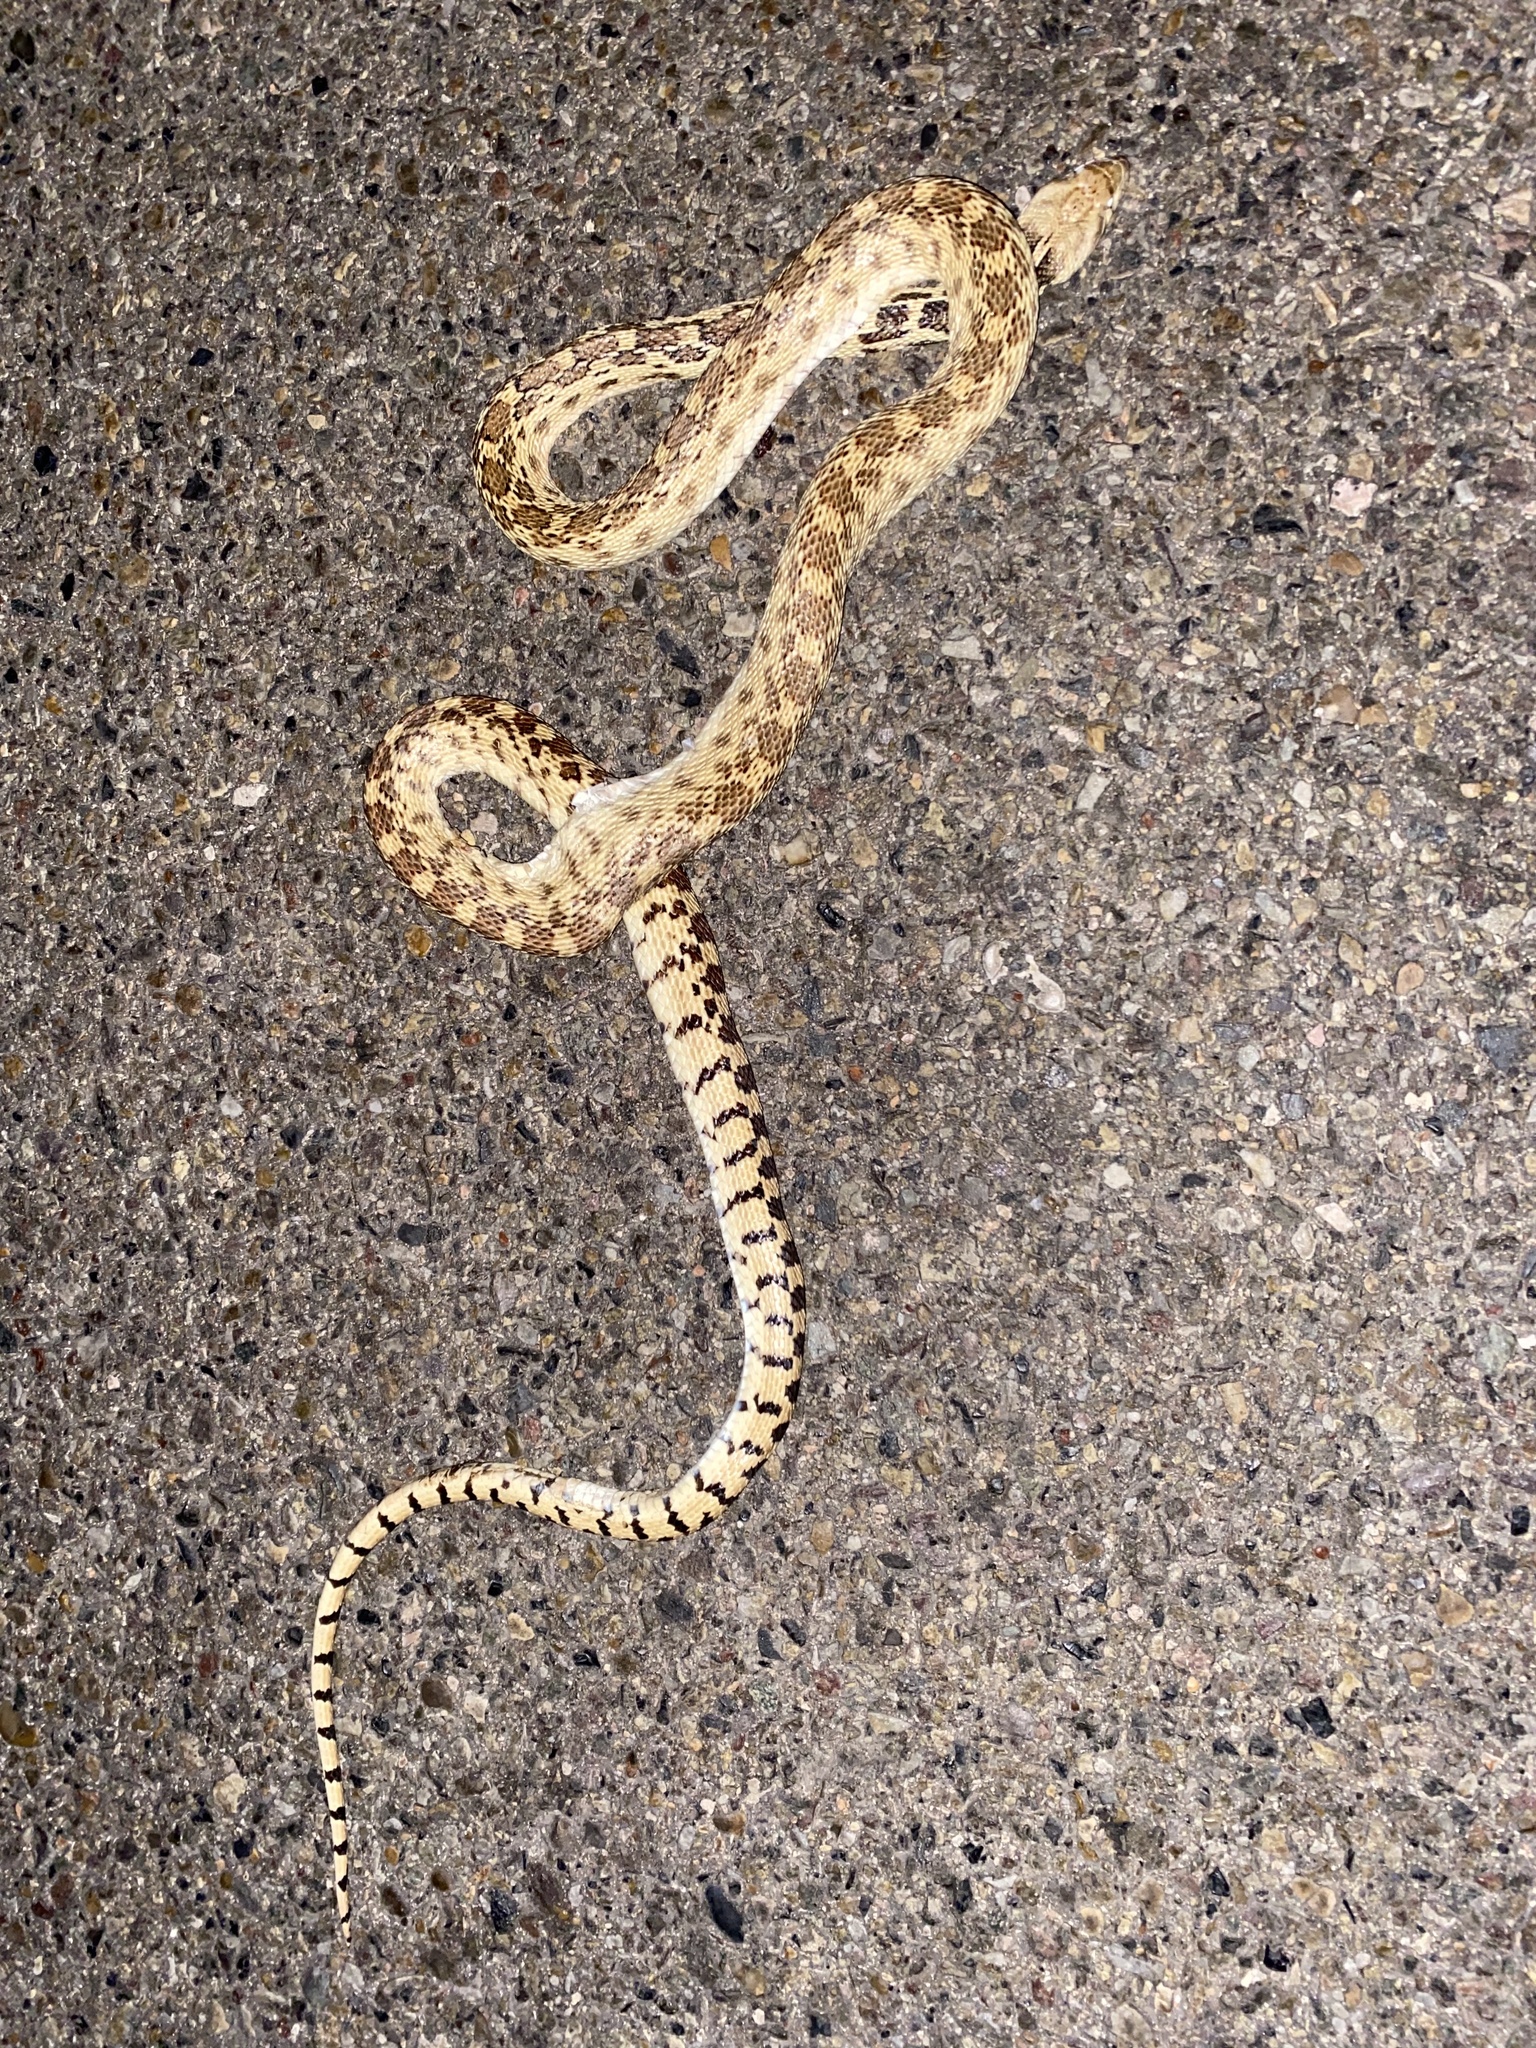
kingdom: Animalia
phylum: Chordata
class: Squamata
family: Colubridae
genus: Pituophis
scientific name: Pituophis catenifer
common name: Gopher snake
